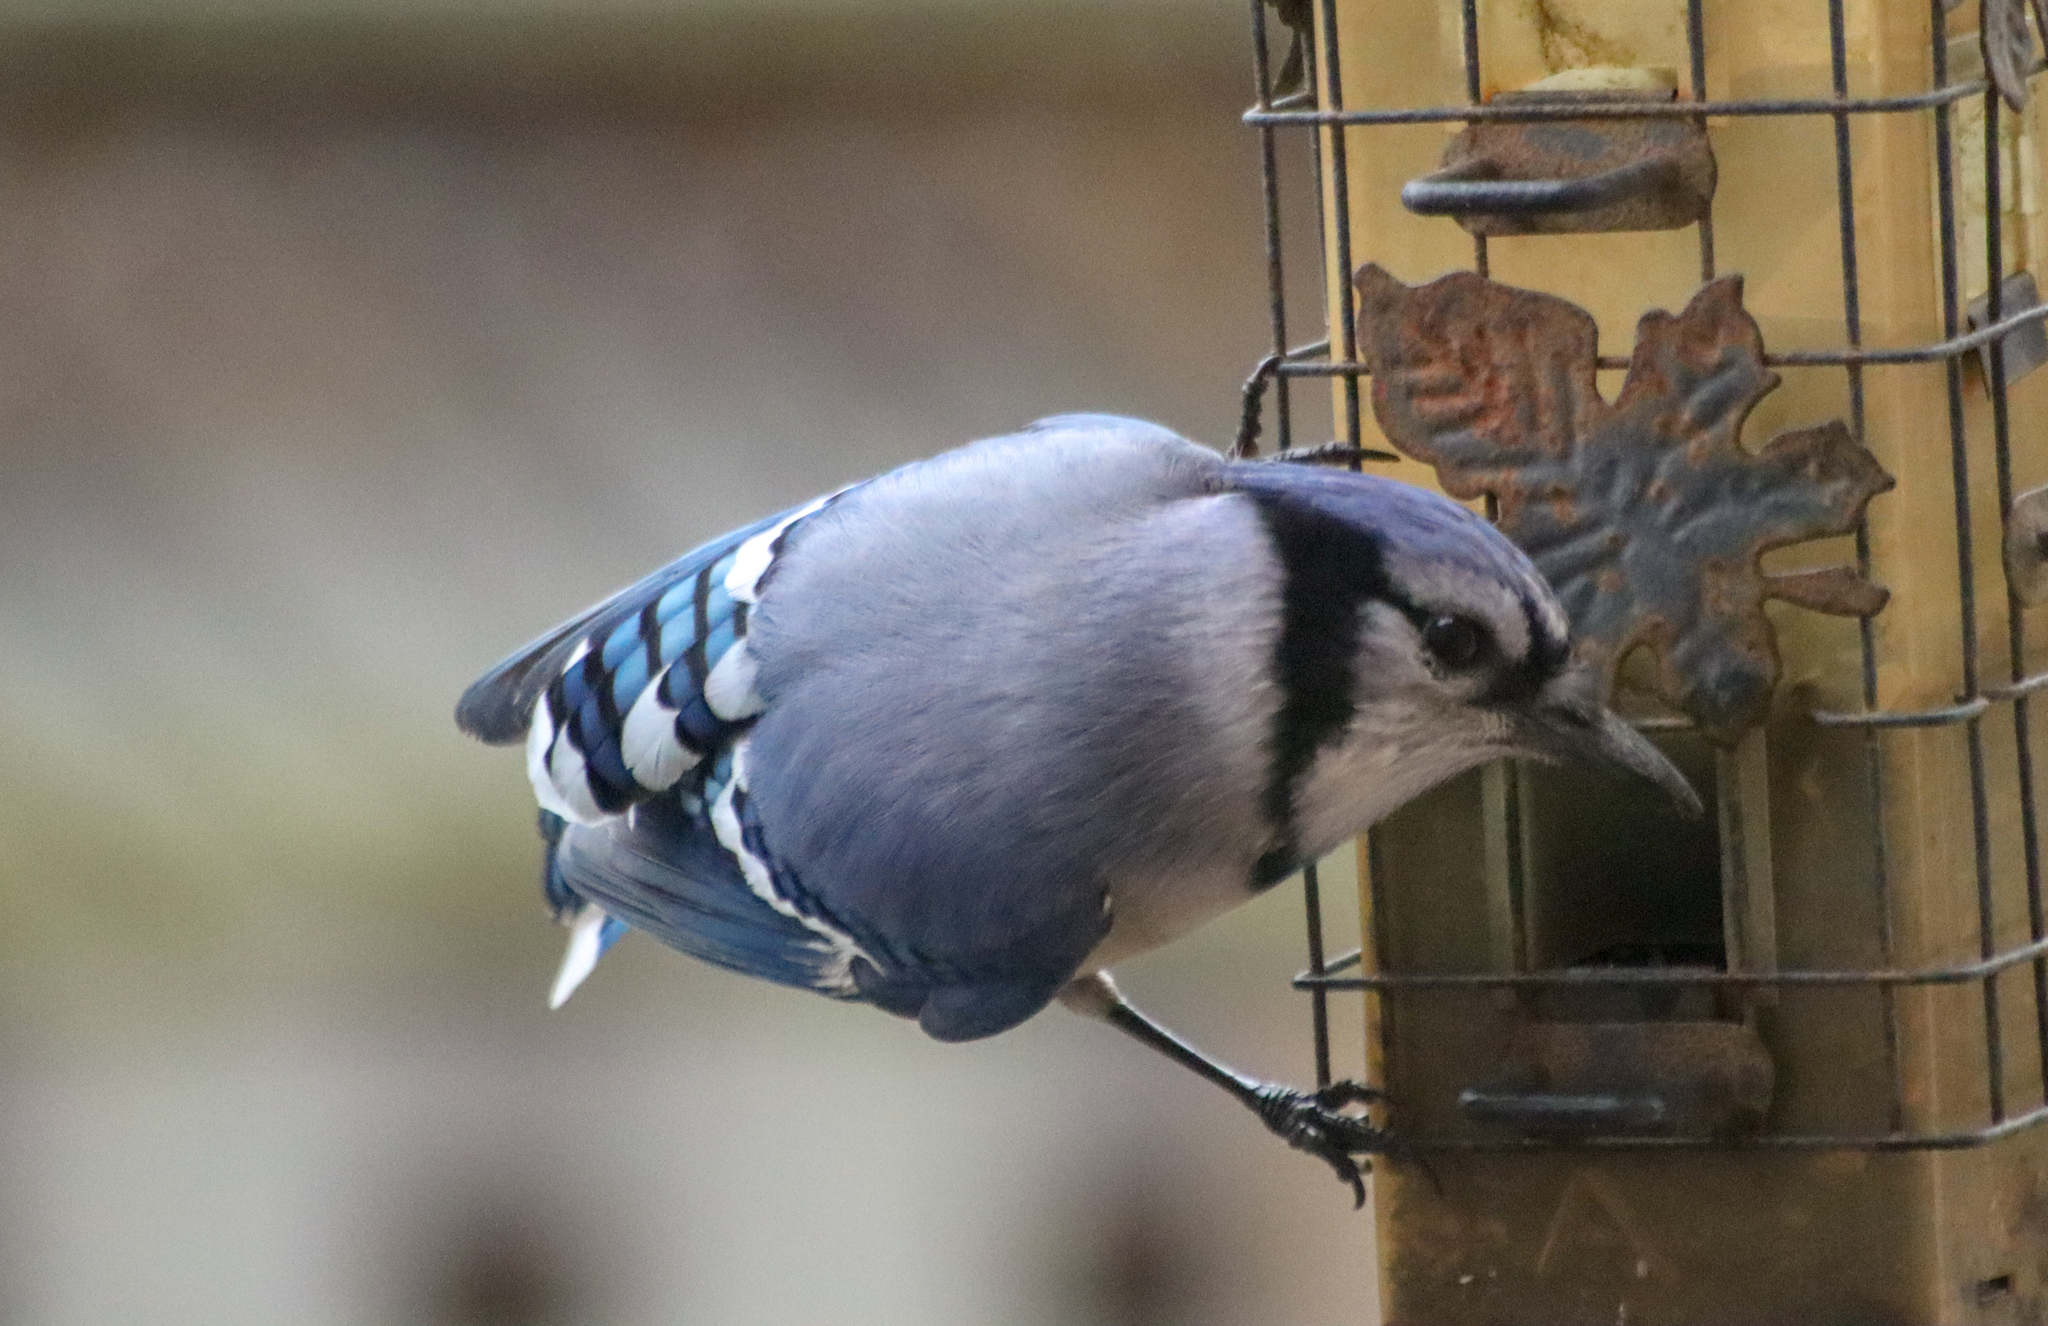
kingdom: Animalia
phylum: Chordata
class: Aves
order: Passeriformes
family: Corvidae
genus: Cyanocitta
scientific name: Cyanocitta cristata
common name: Blue jay
